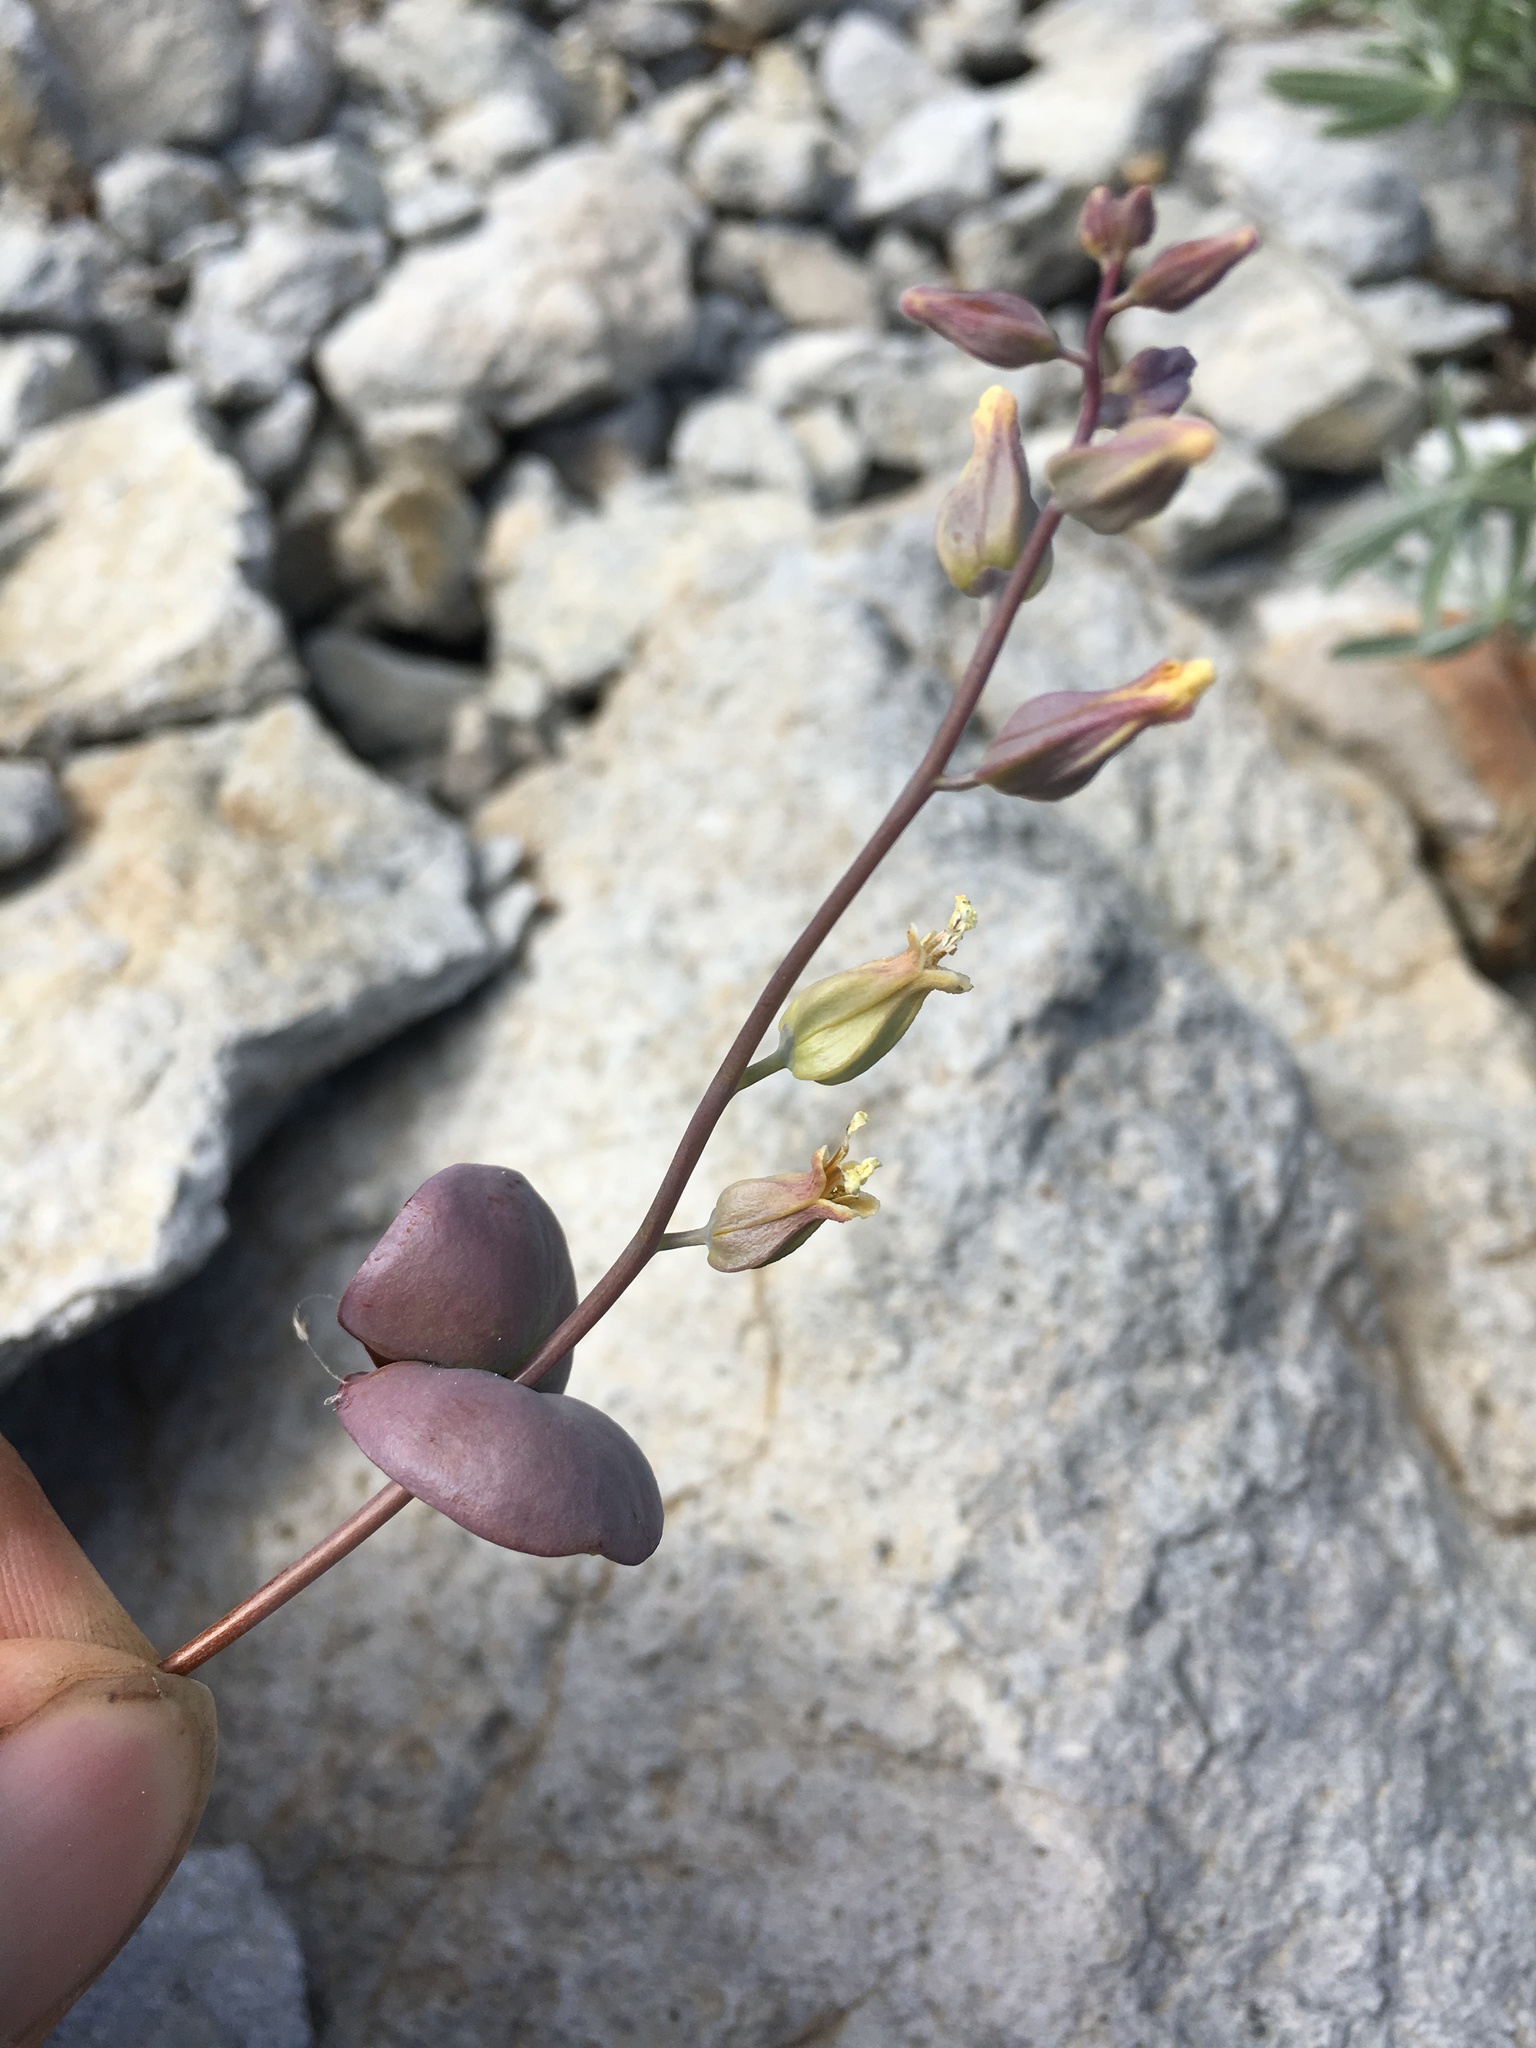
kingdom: Plantae
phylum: Tracheophyta
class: Magnoliopsida
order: Brassicales
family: Brassicaceae
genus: Streptanthus
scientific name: Streptanthus tortuosus
